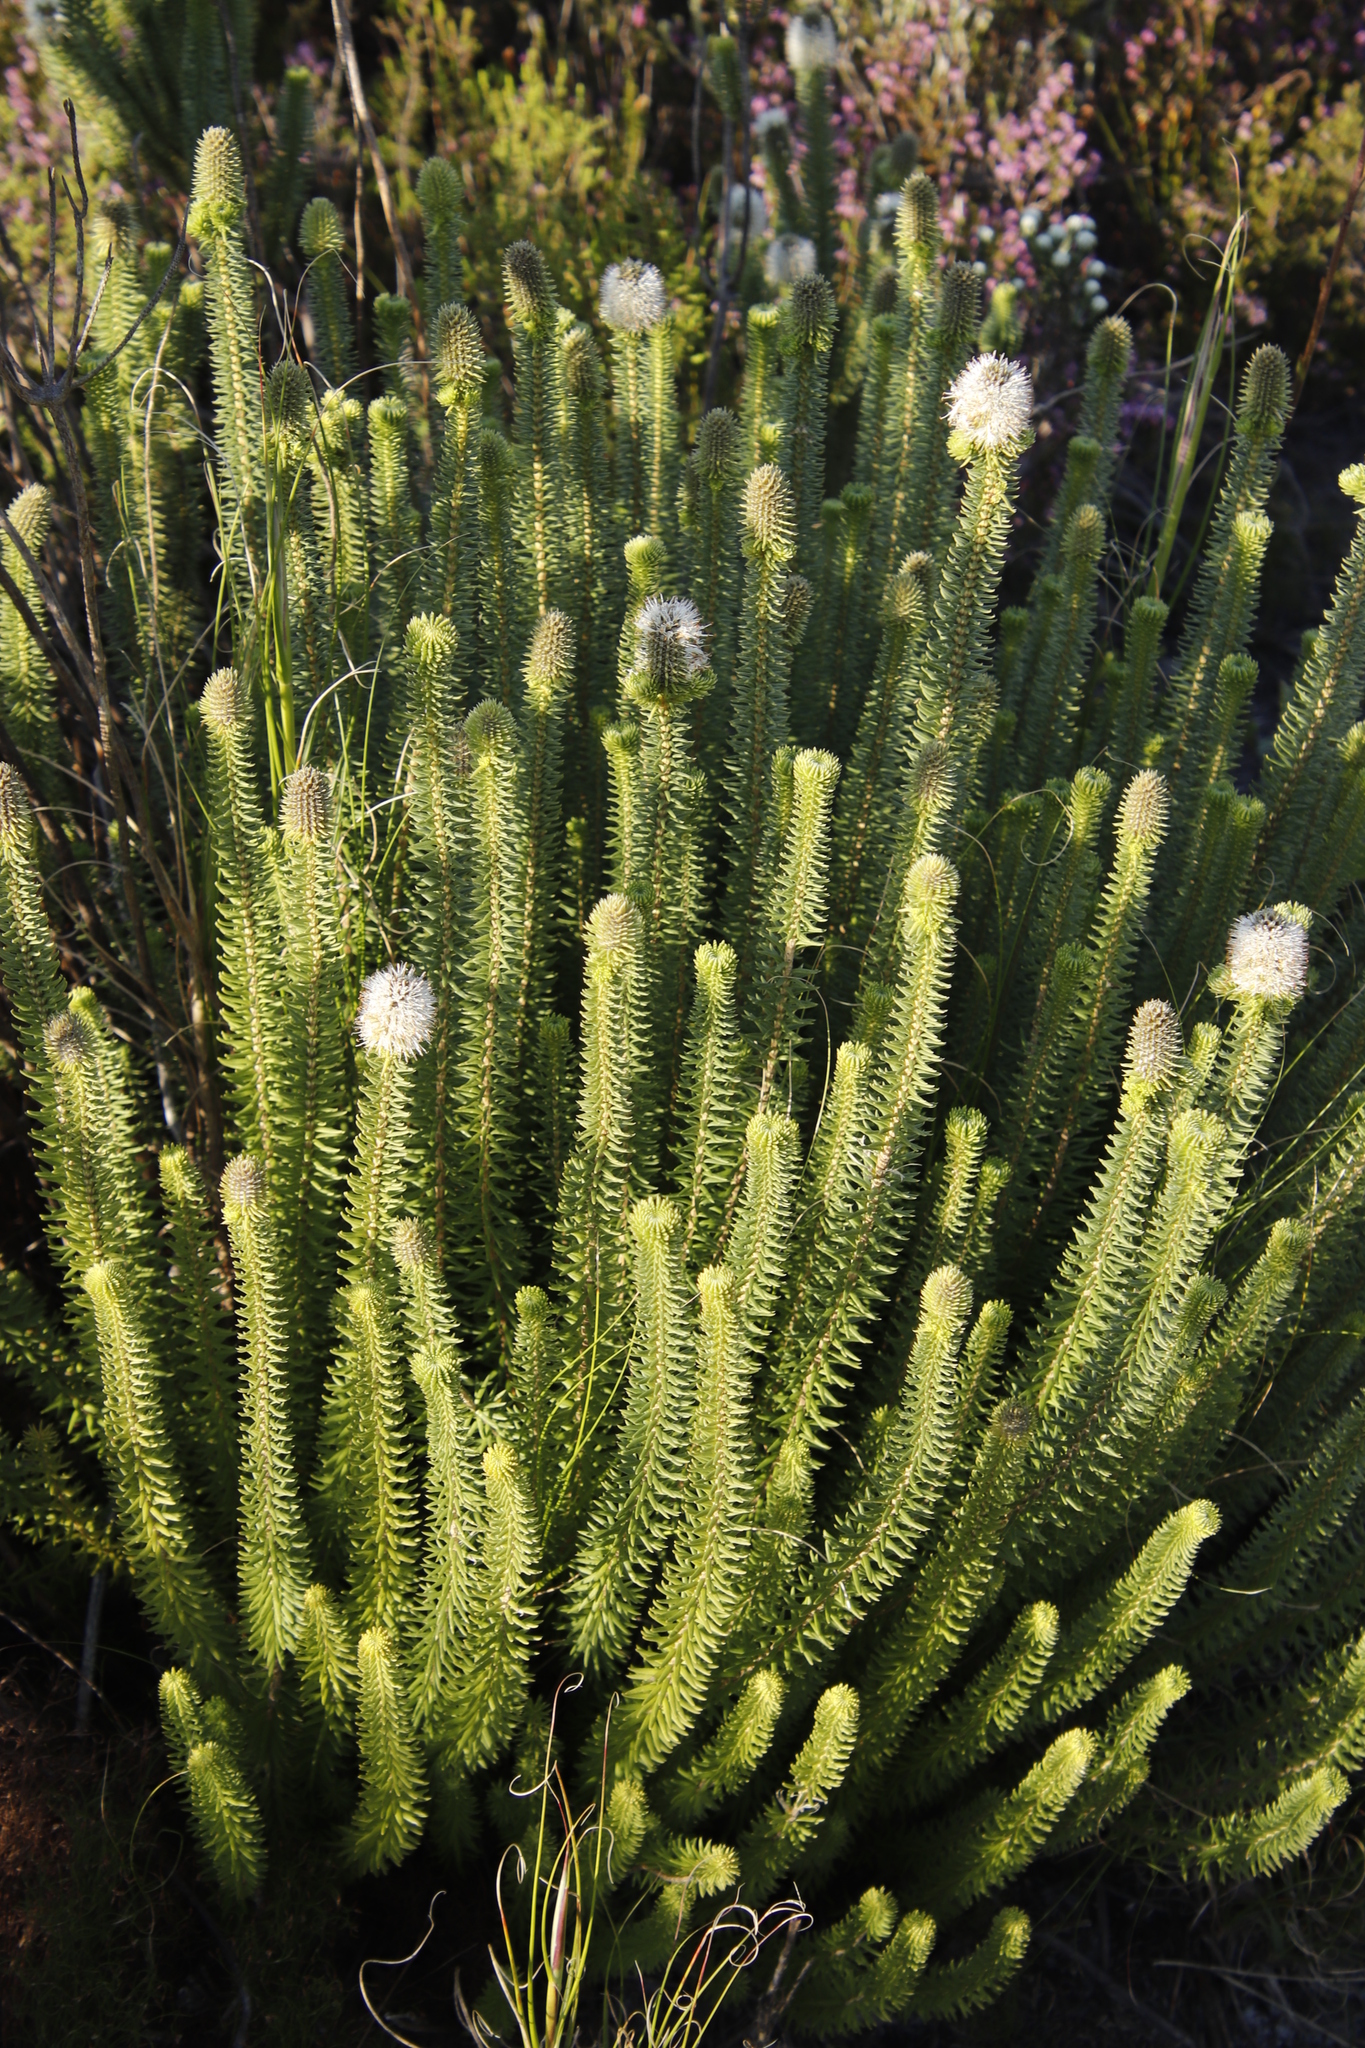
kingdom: Plantae
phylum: Tracheophyta
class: Magnoliopsida
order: Lamiales
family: Stilbaceae
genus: Stilbe
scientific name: Stilbe vestita
